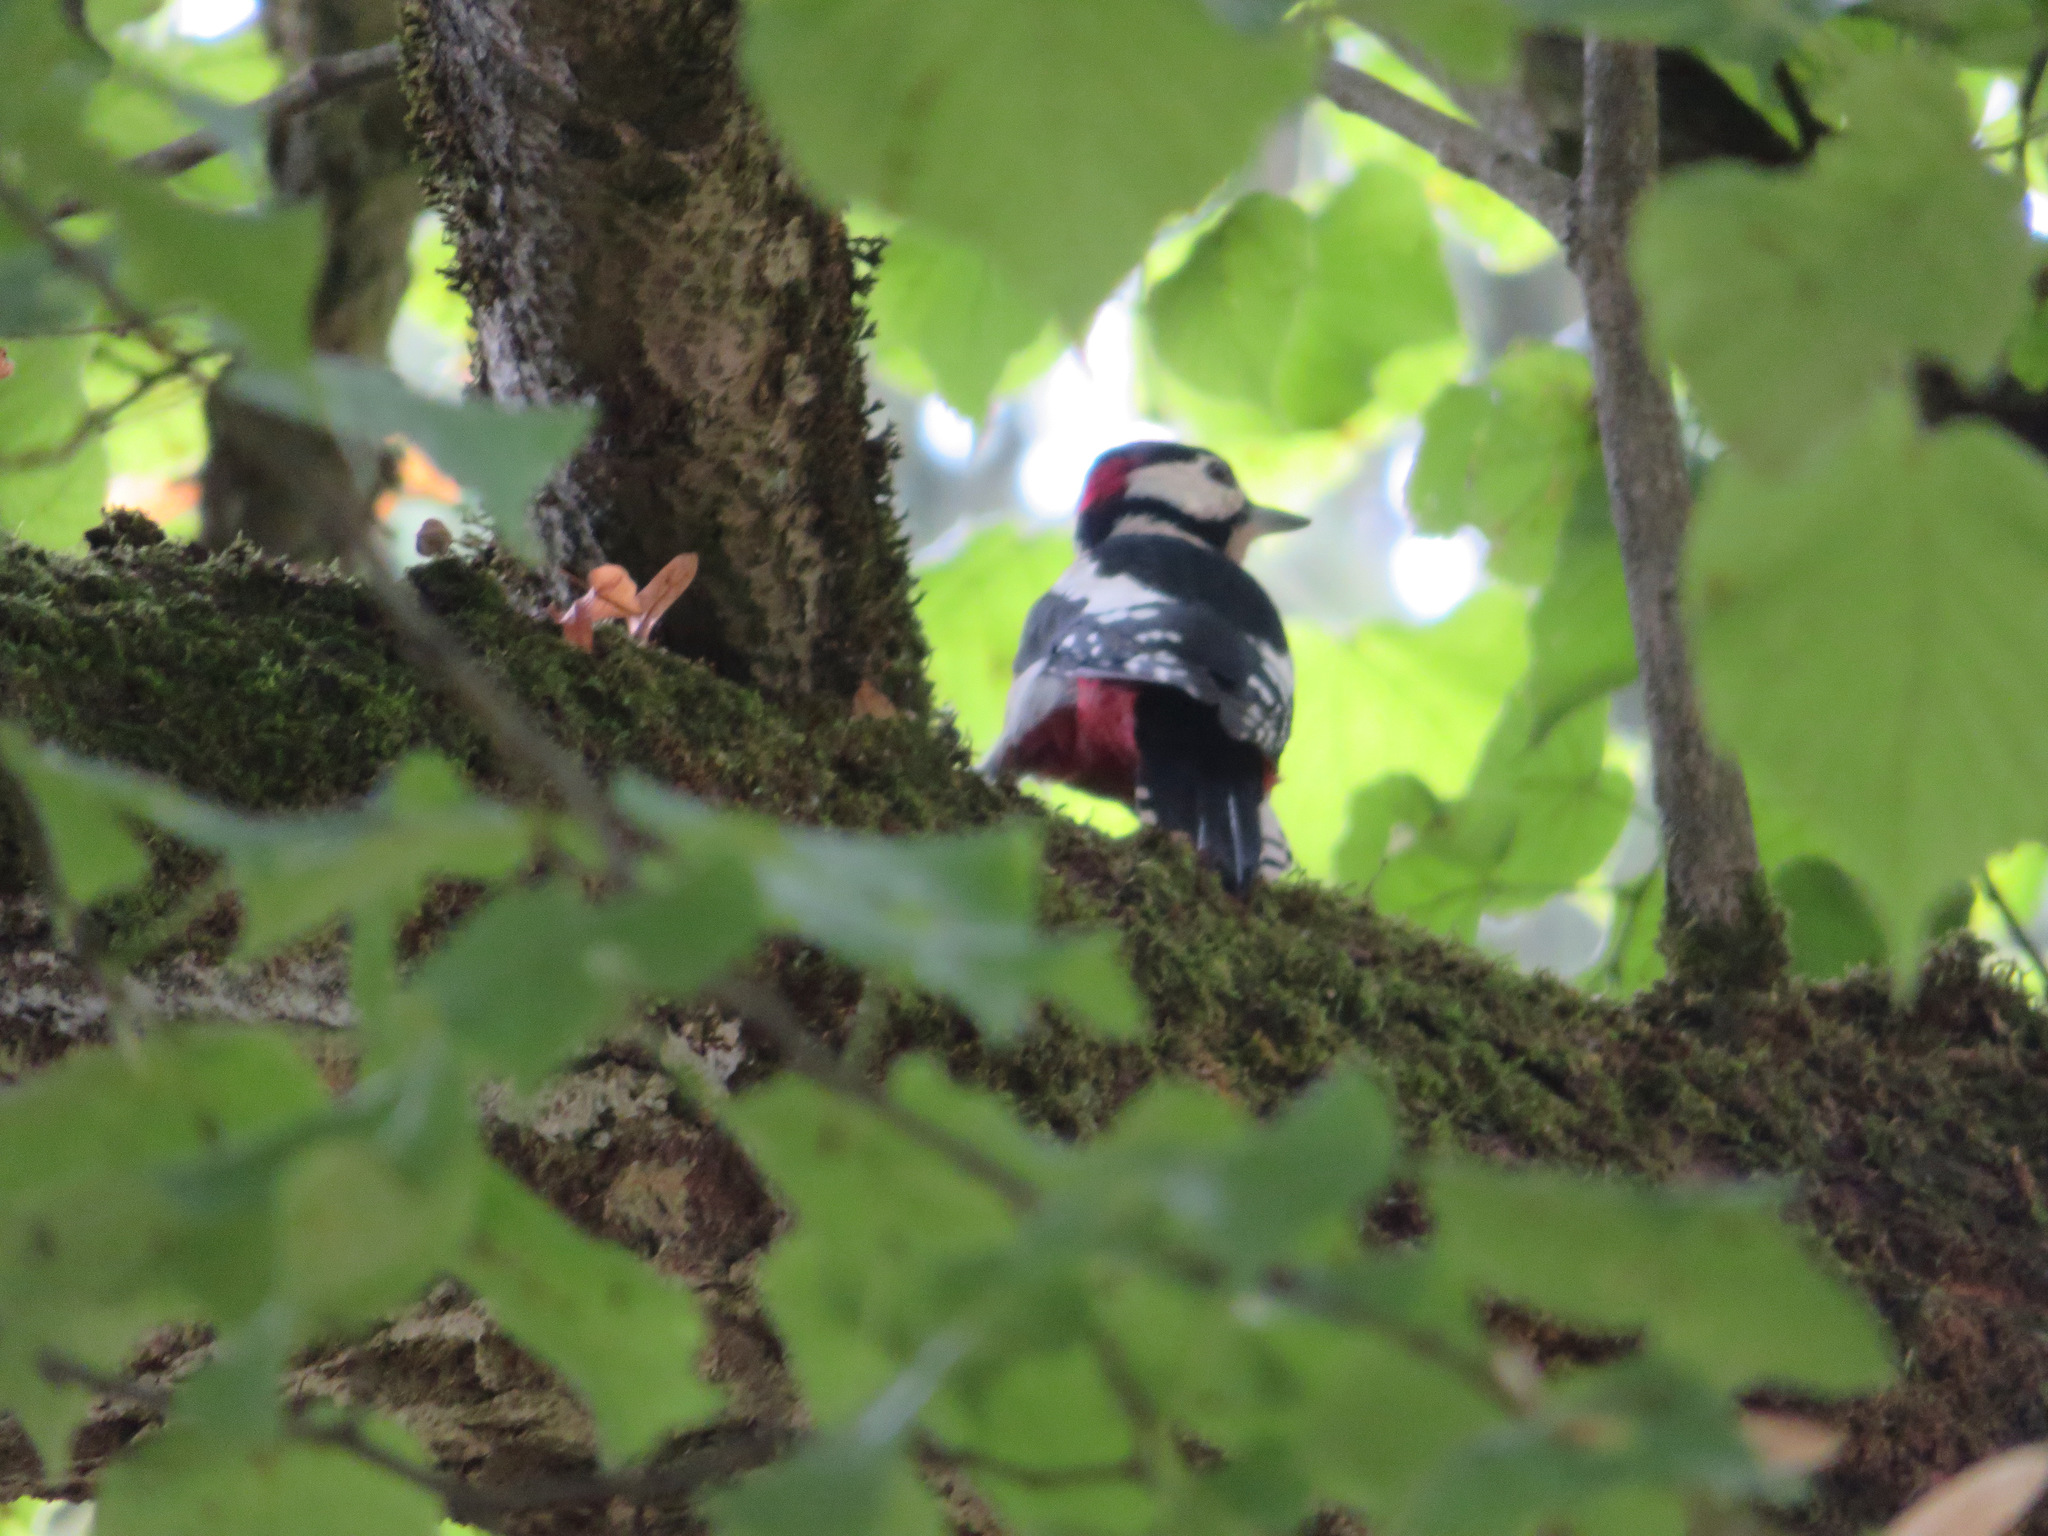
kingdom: Animalia
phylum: Chordata
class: Aves
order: Piciformes
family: Picidae
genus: Dendrocopos
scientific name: Dendrocopos major
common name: Great spotted woodpecker
